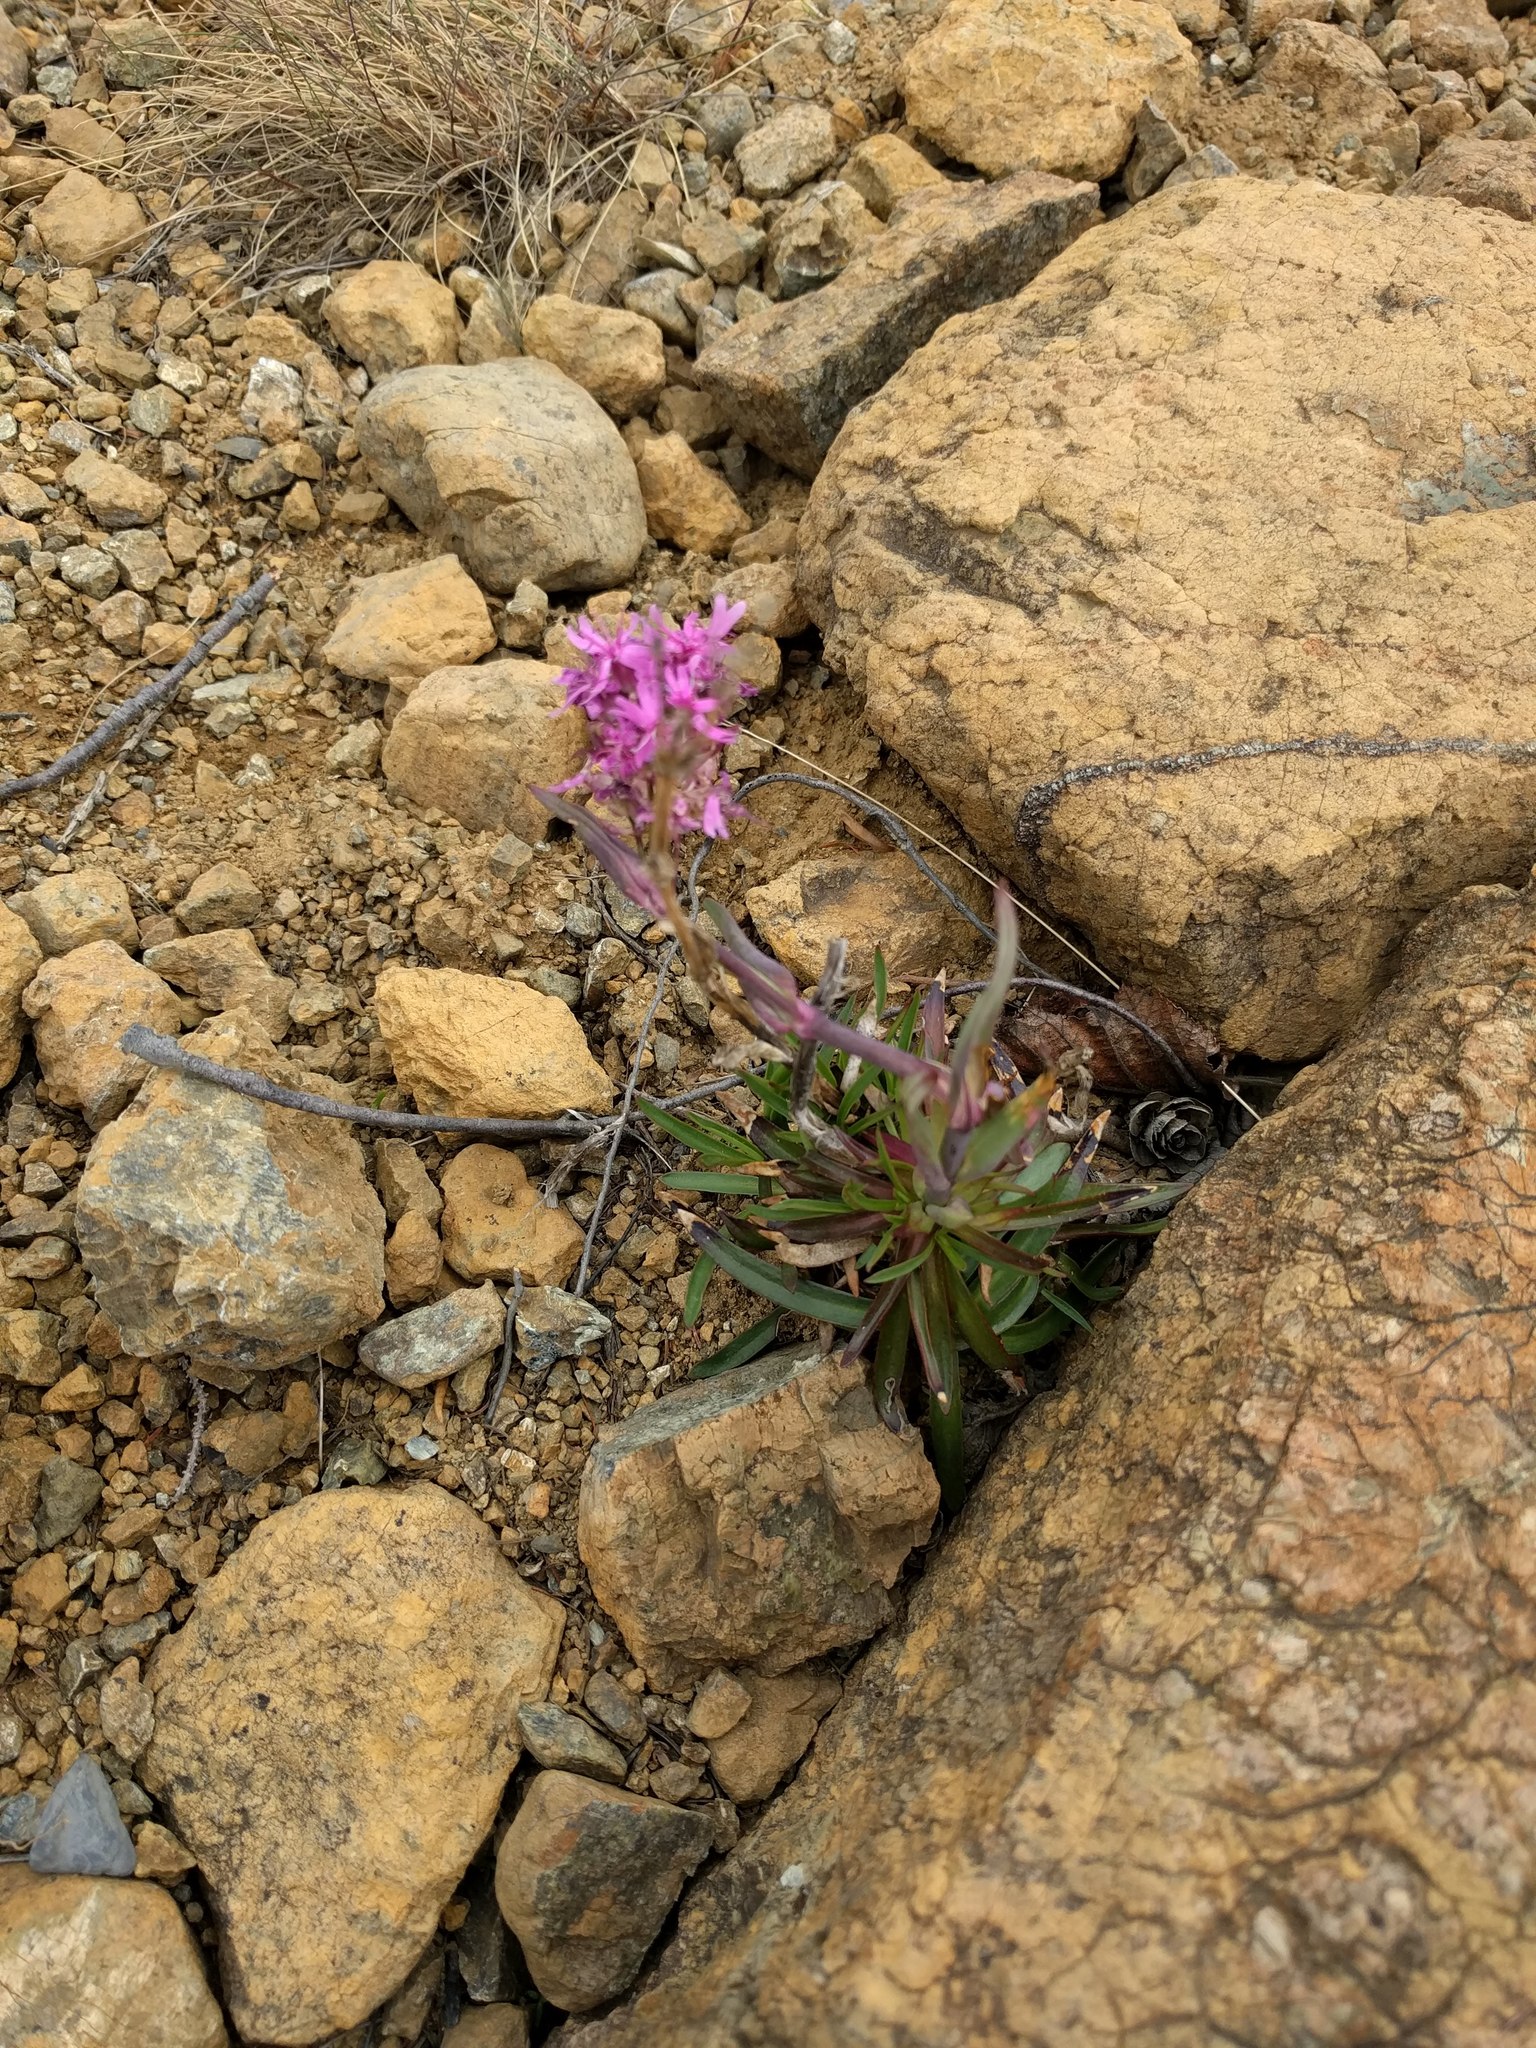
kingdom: Plantae
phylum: Tracheophyta
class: Magnoliopsida
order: Caryophyllales
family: Caryophyllaceae
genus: Viscaria
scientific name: Viscaria alpina
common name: Alpine campion
